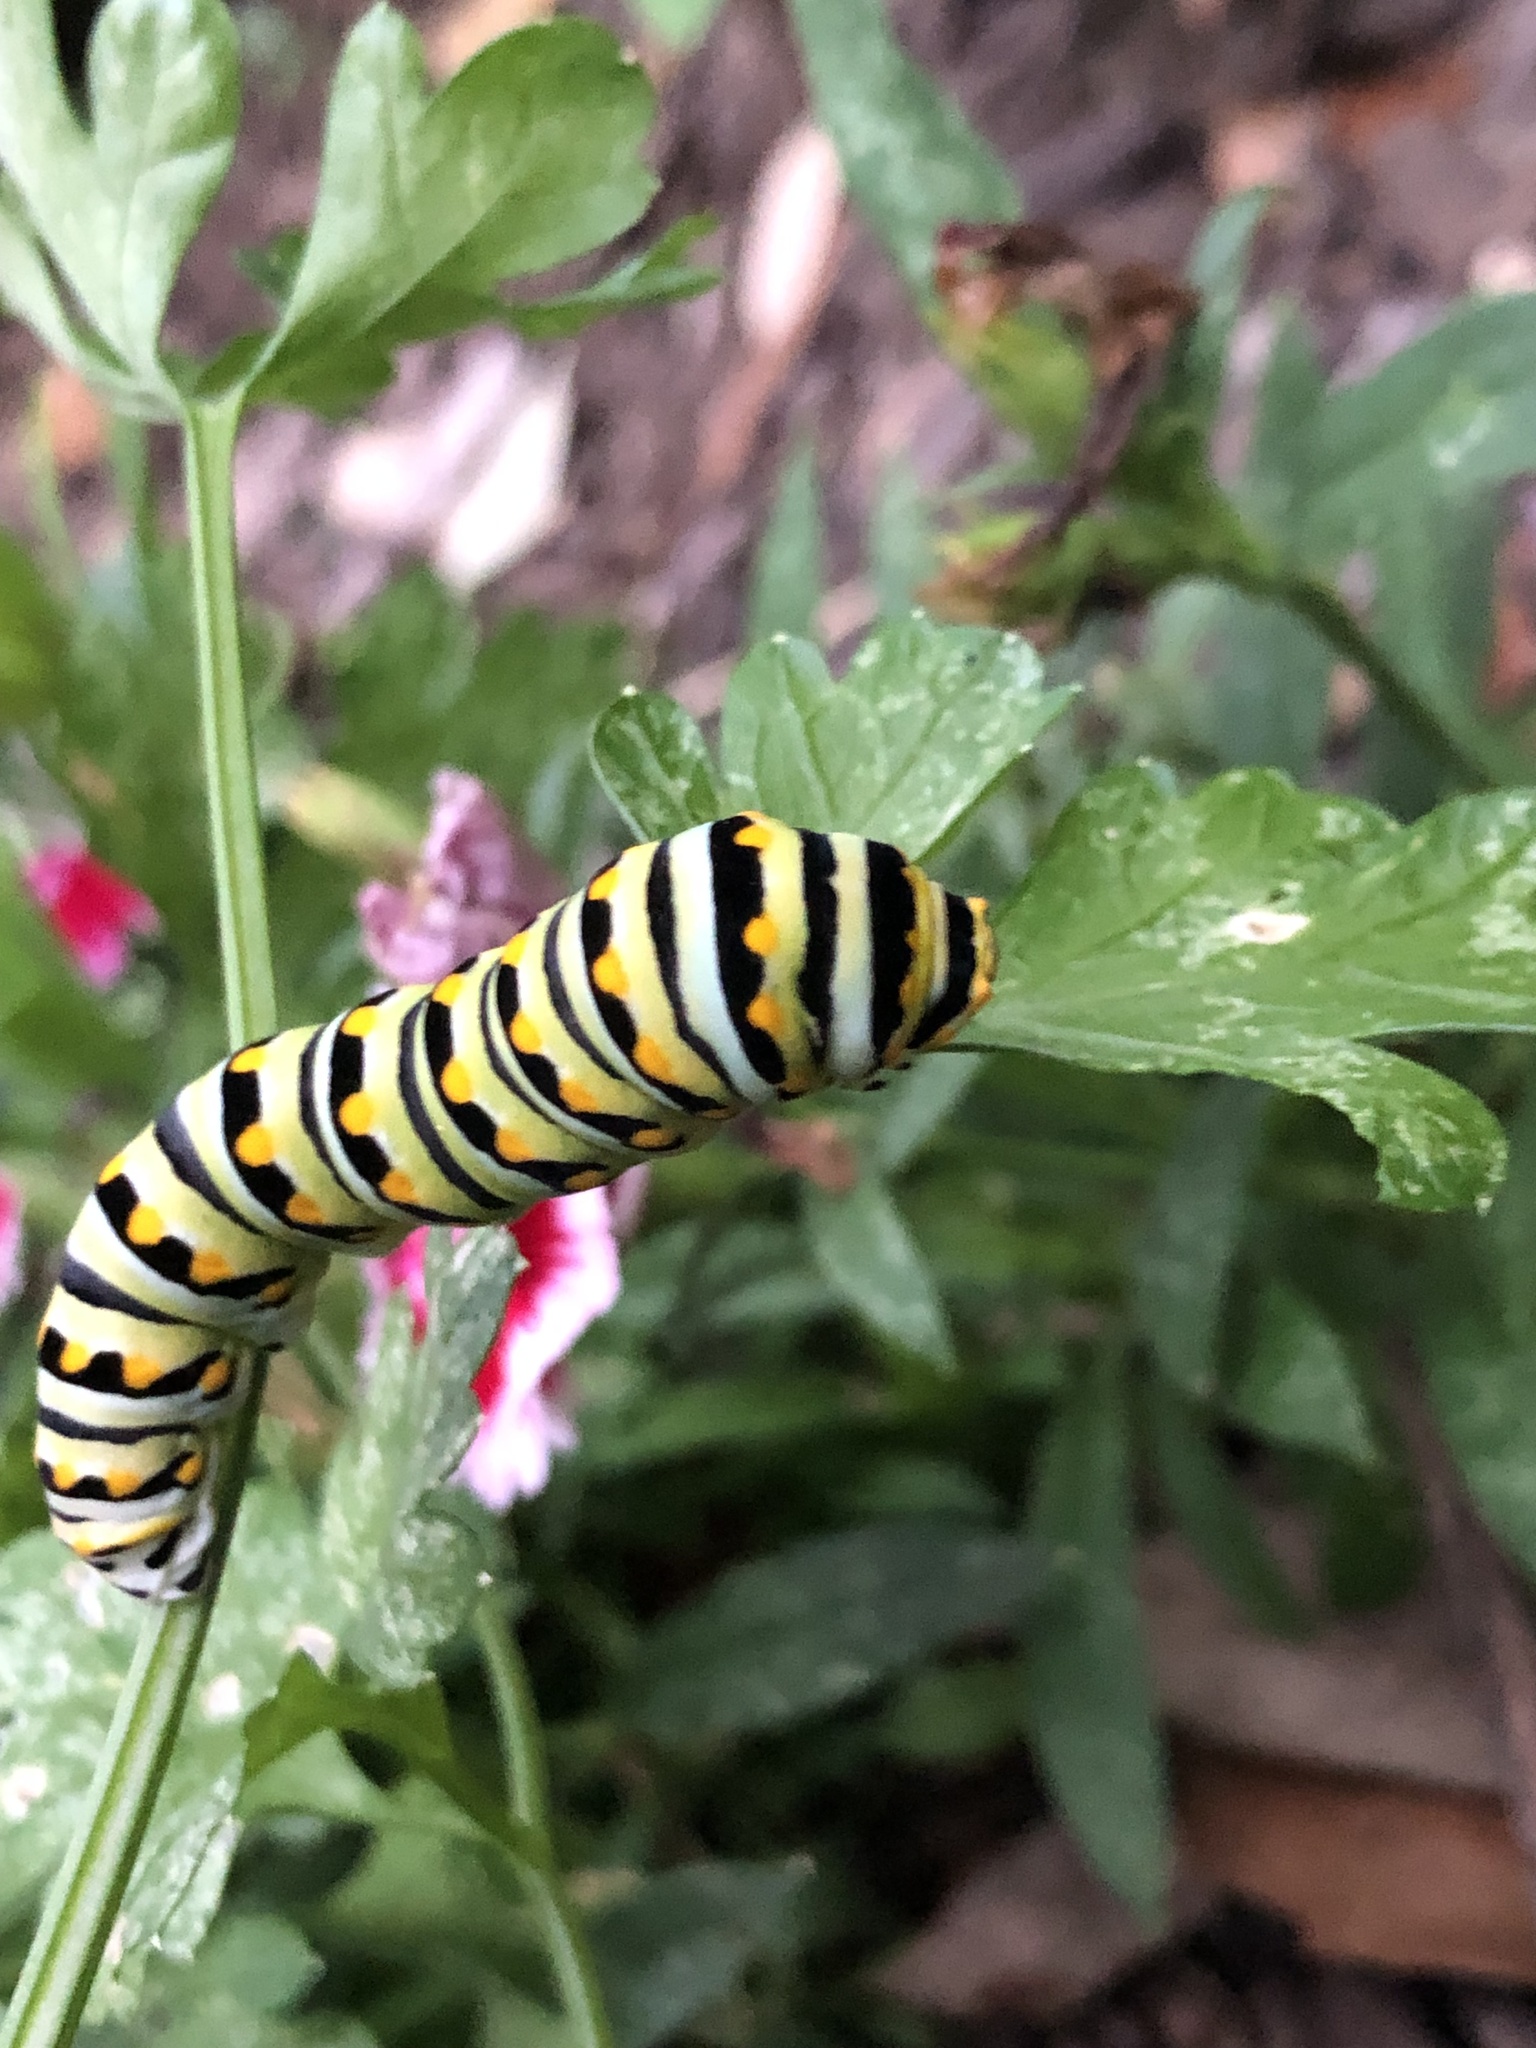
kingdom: Animalia
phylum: Arthropoda
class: Insecta
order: Lepidoptera
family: Papilionidae
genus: Papilio
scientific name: Papilio polyxenes
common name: Black swallowtail
